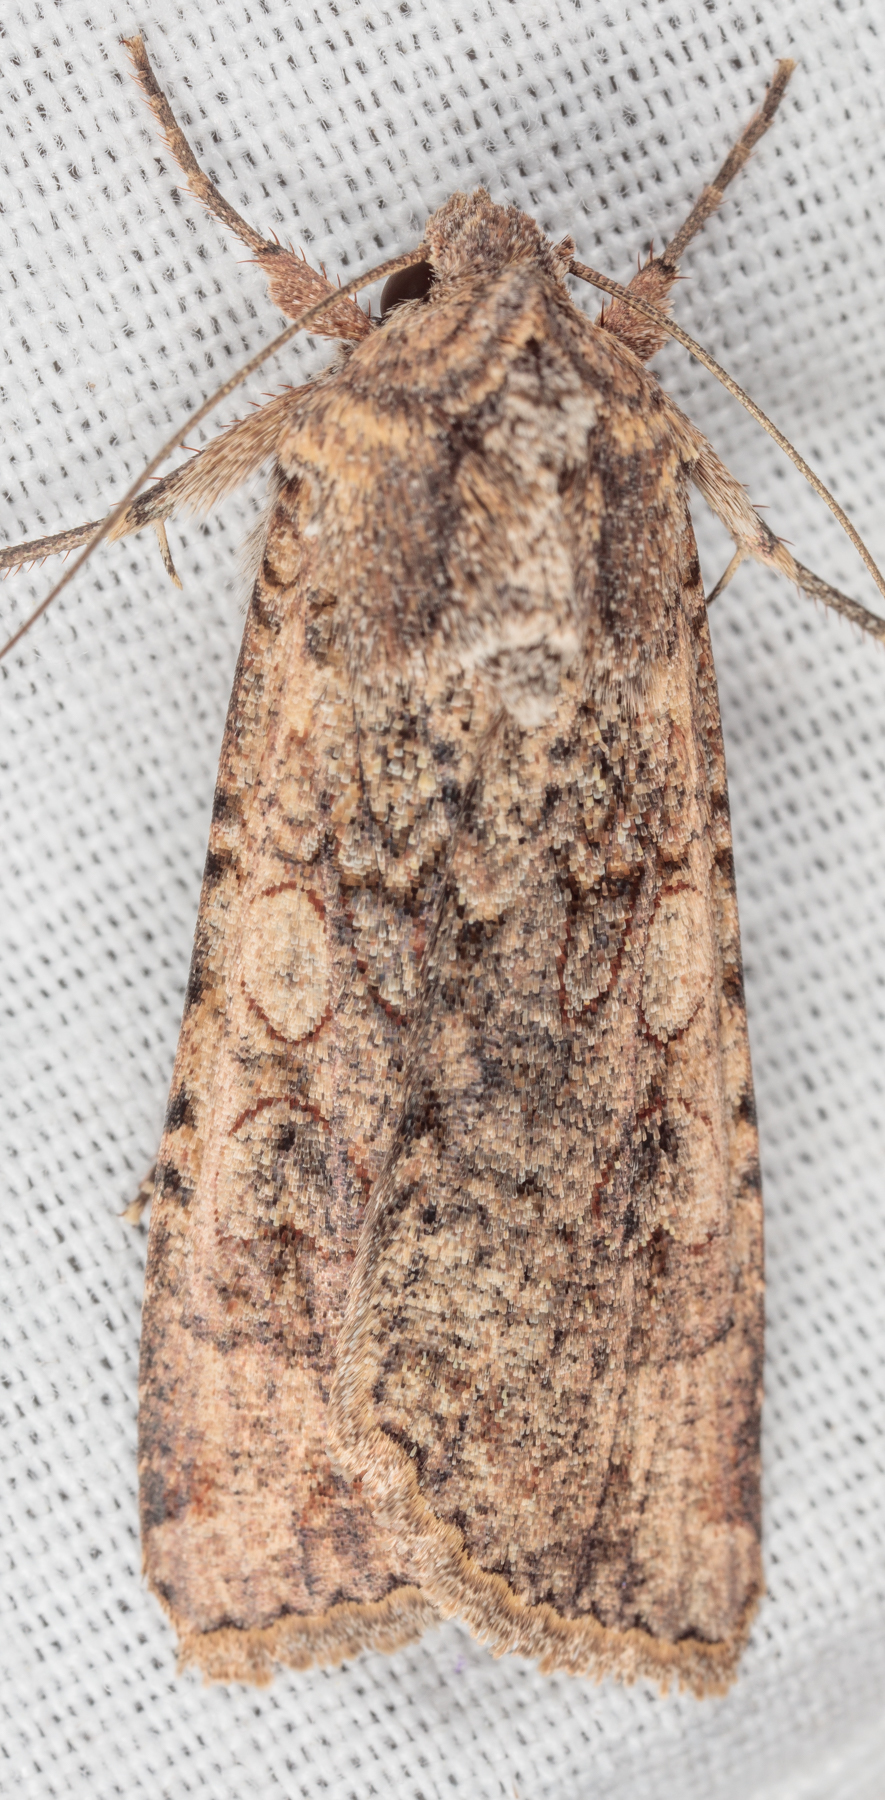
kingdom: Animalia
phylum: Arthropoda
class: Insecta
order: Lepidoptera
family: Noctuidae
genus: Peridroma
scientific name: Peridroma saucia
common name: Pearly underwing
